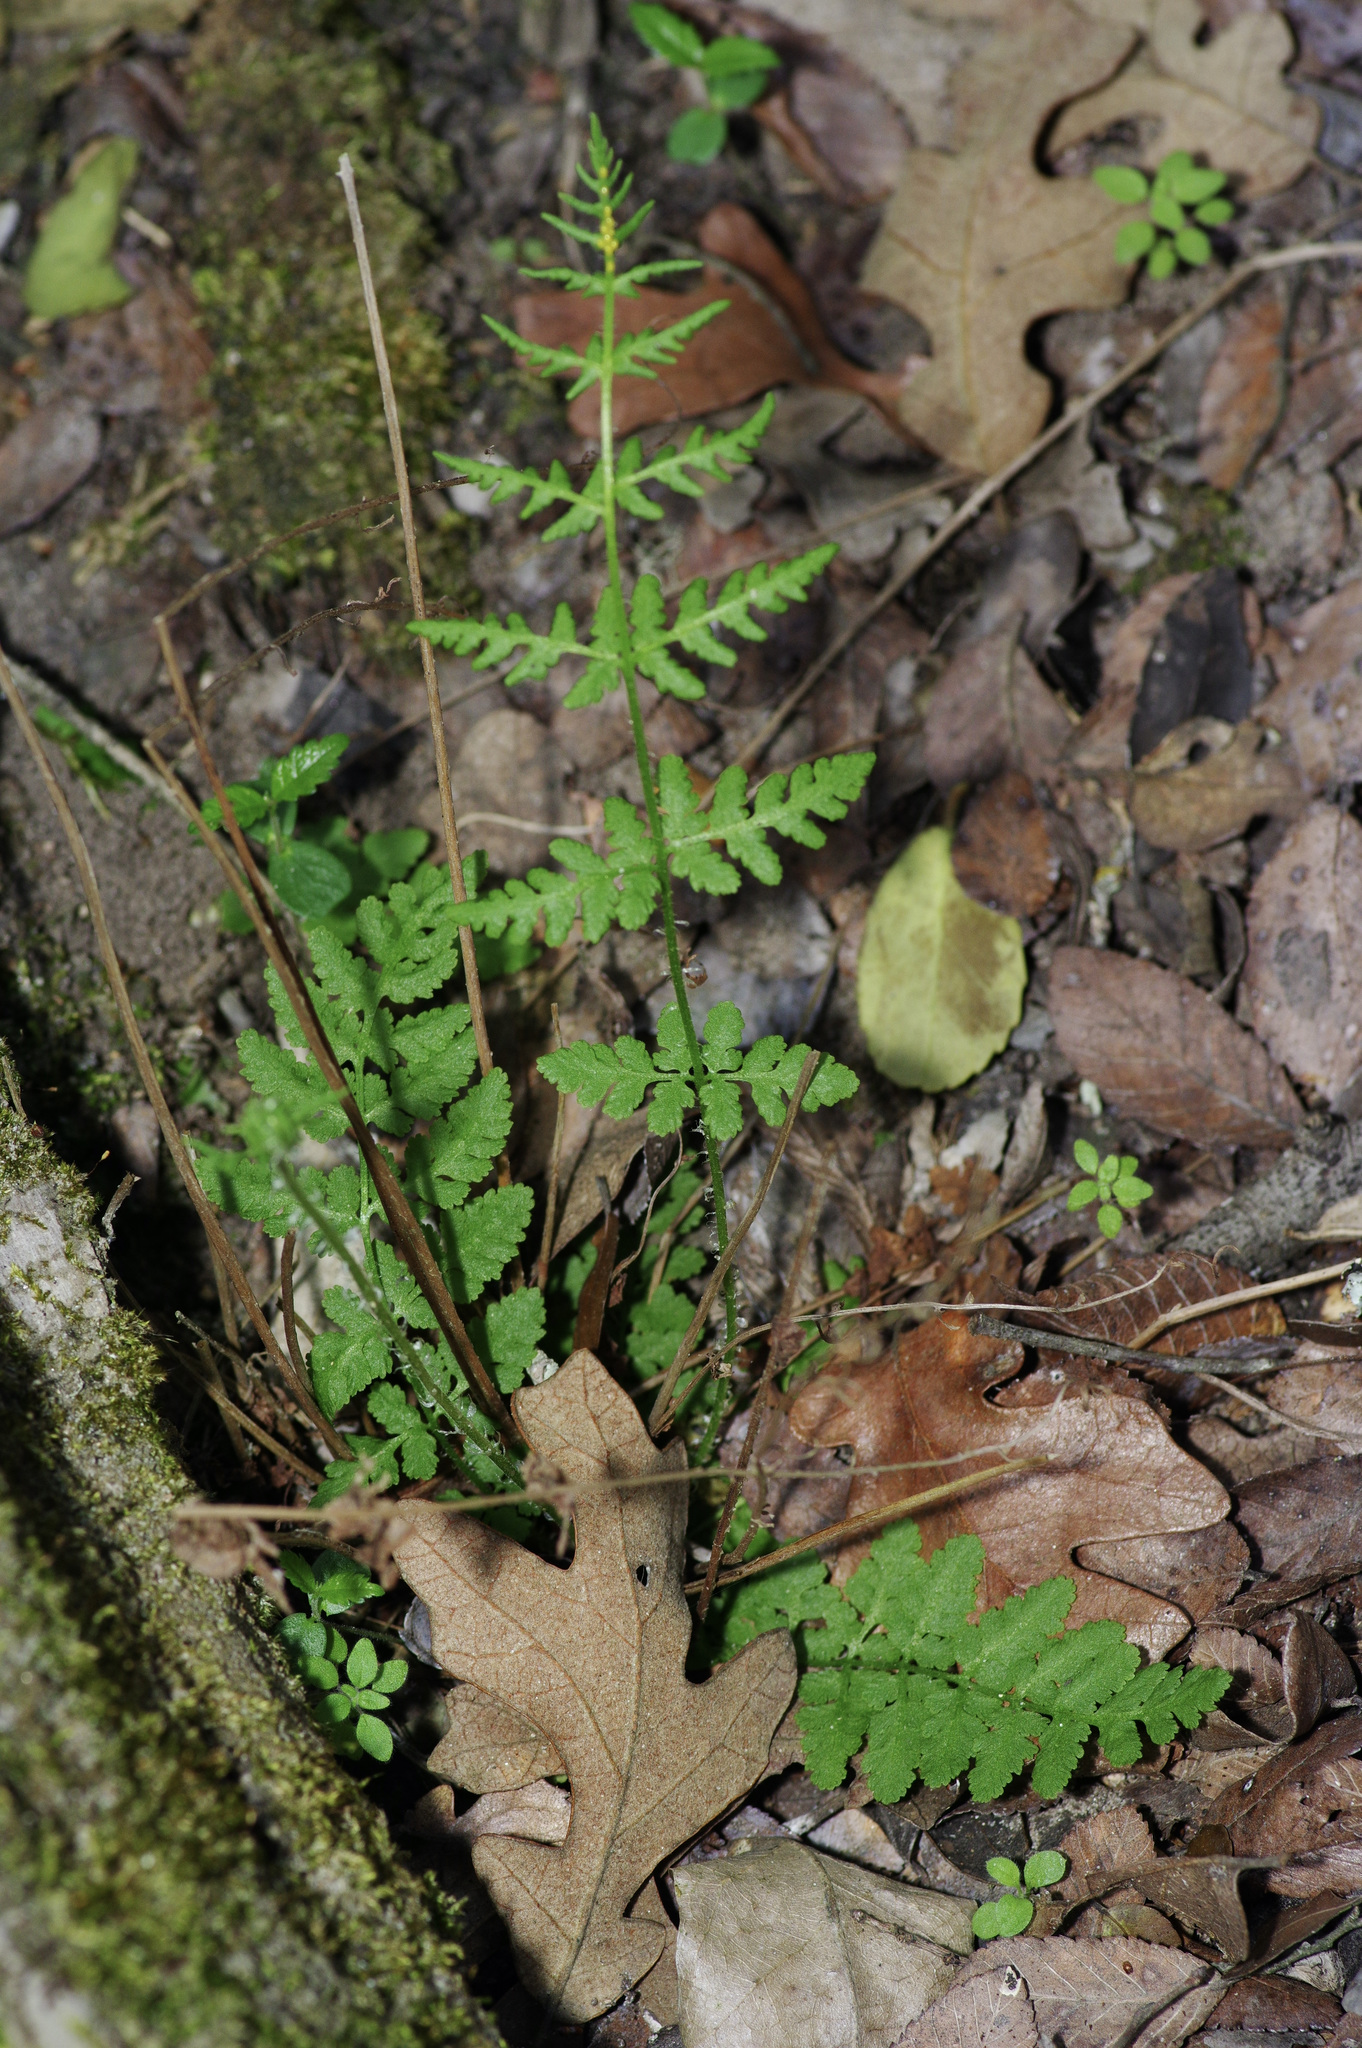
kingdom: Plantae
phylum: Tracheophyta
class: Polypodiopsida
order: Polypodiales
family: Woodsiaceae
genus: Physematium
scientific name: Physematium obtusum
